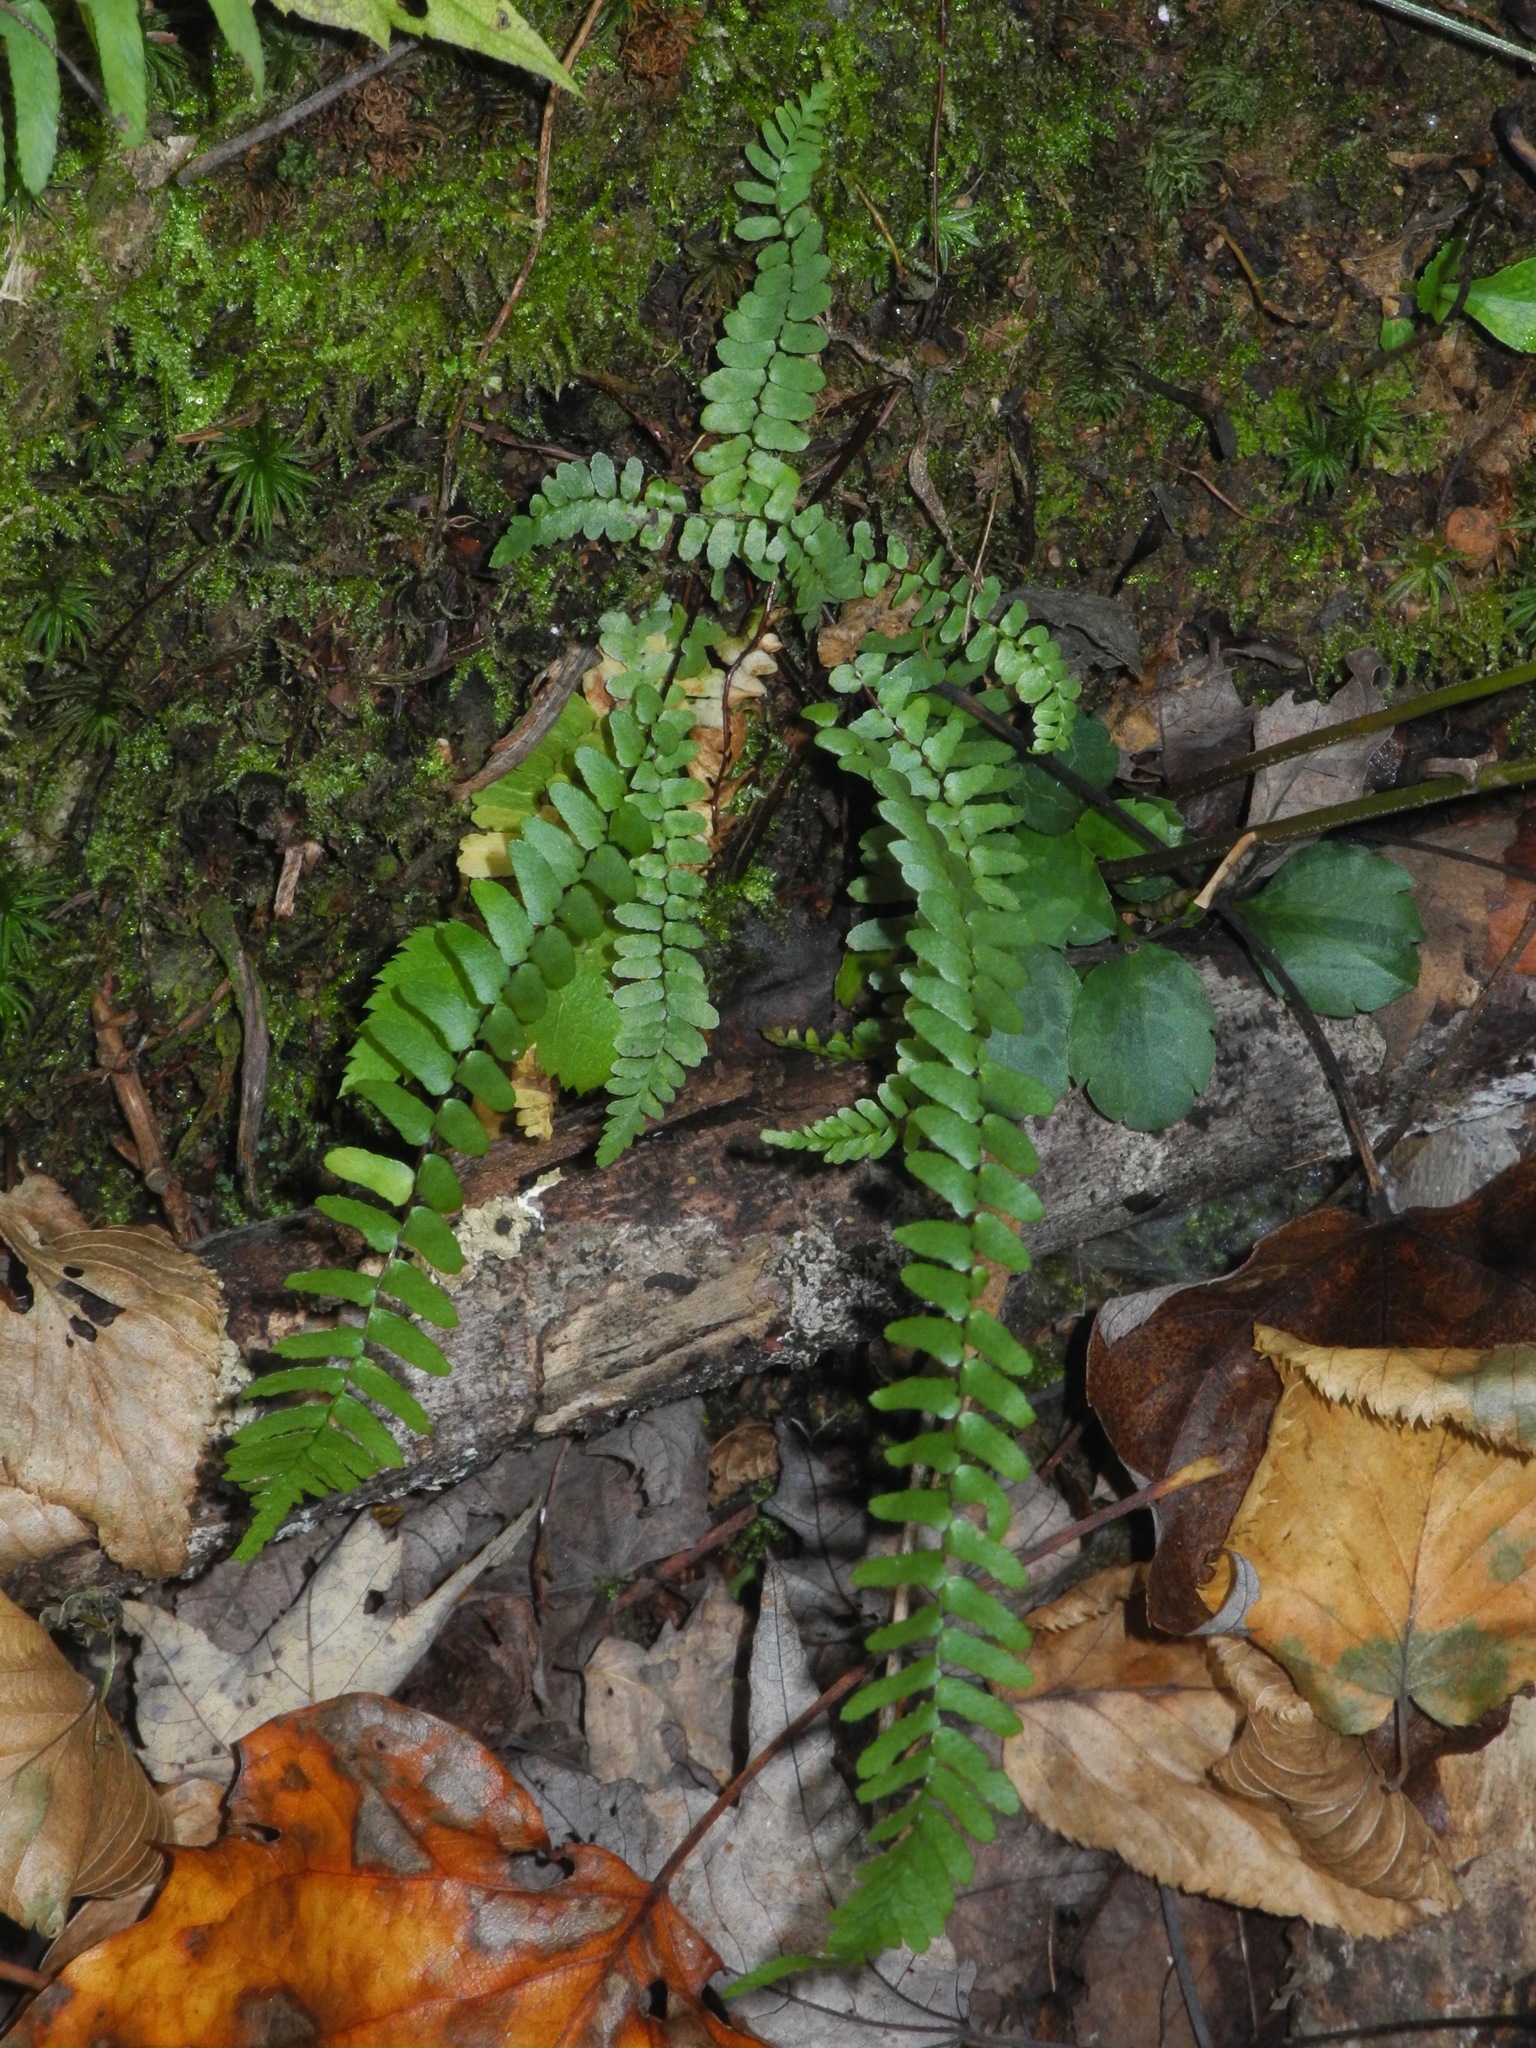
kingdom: Plantae
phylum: Tracheophyta
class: Polypodiopsida
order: Polypodiales
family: Aspleniaceae
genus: Asplenium
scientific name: Asplenium platyneuron
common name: Ebony spleenwort
